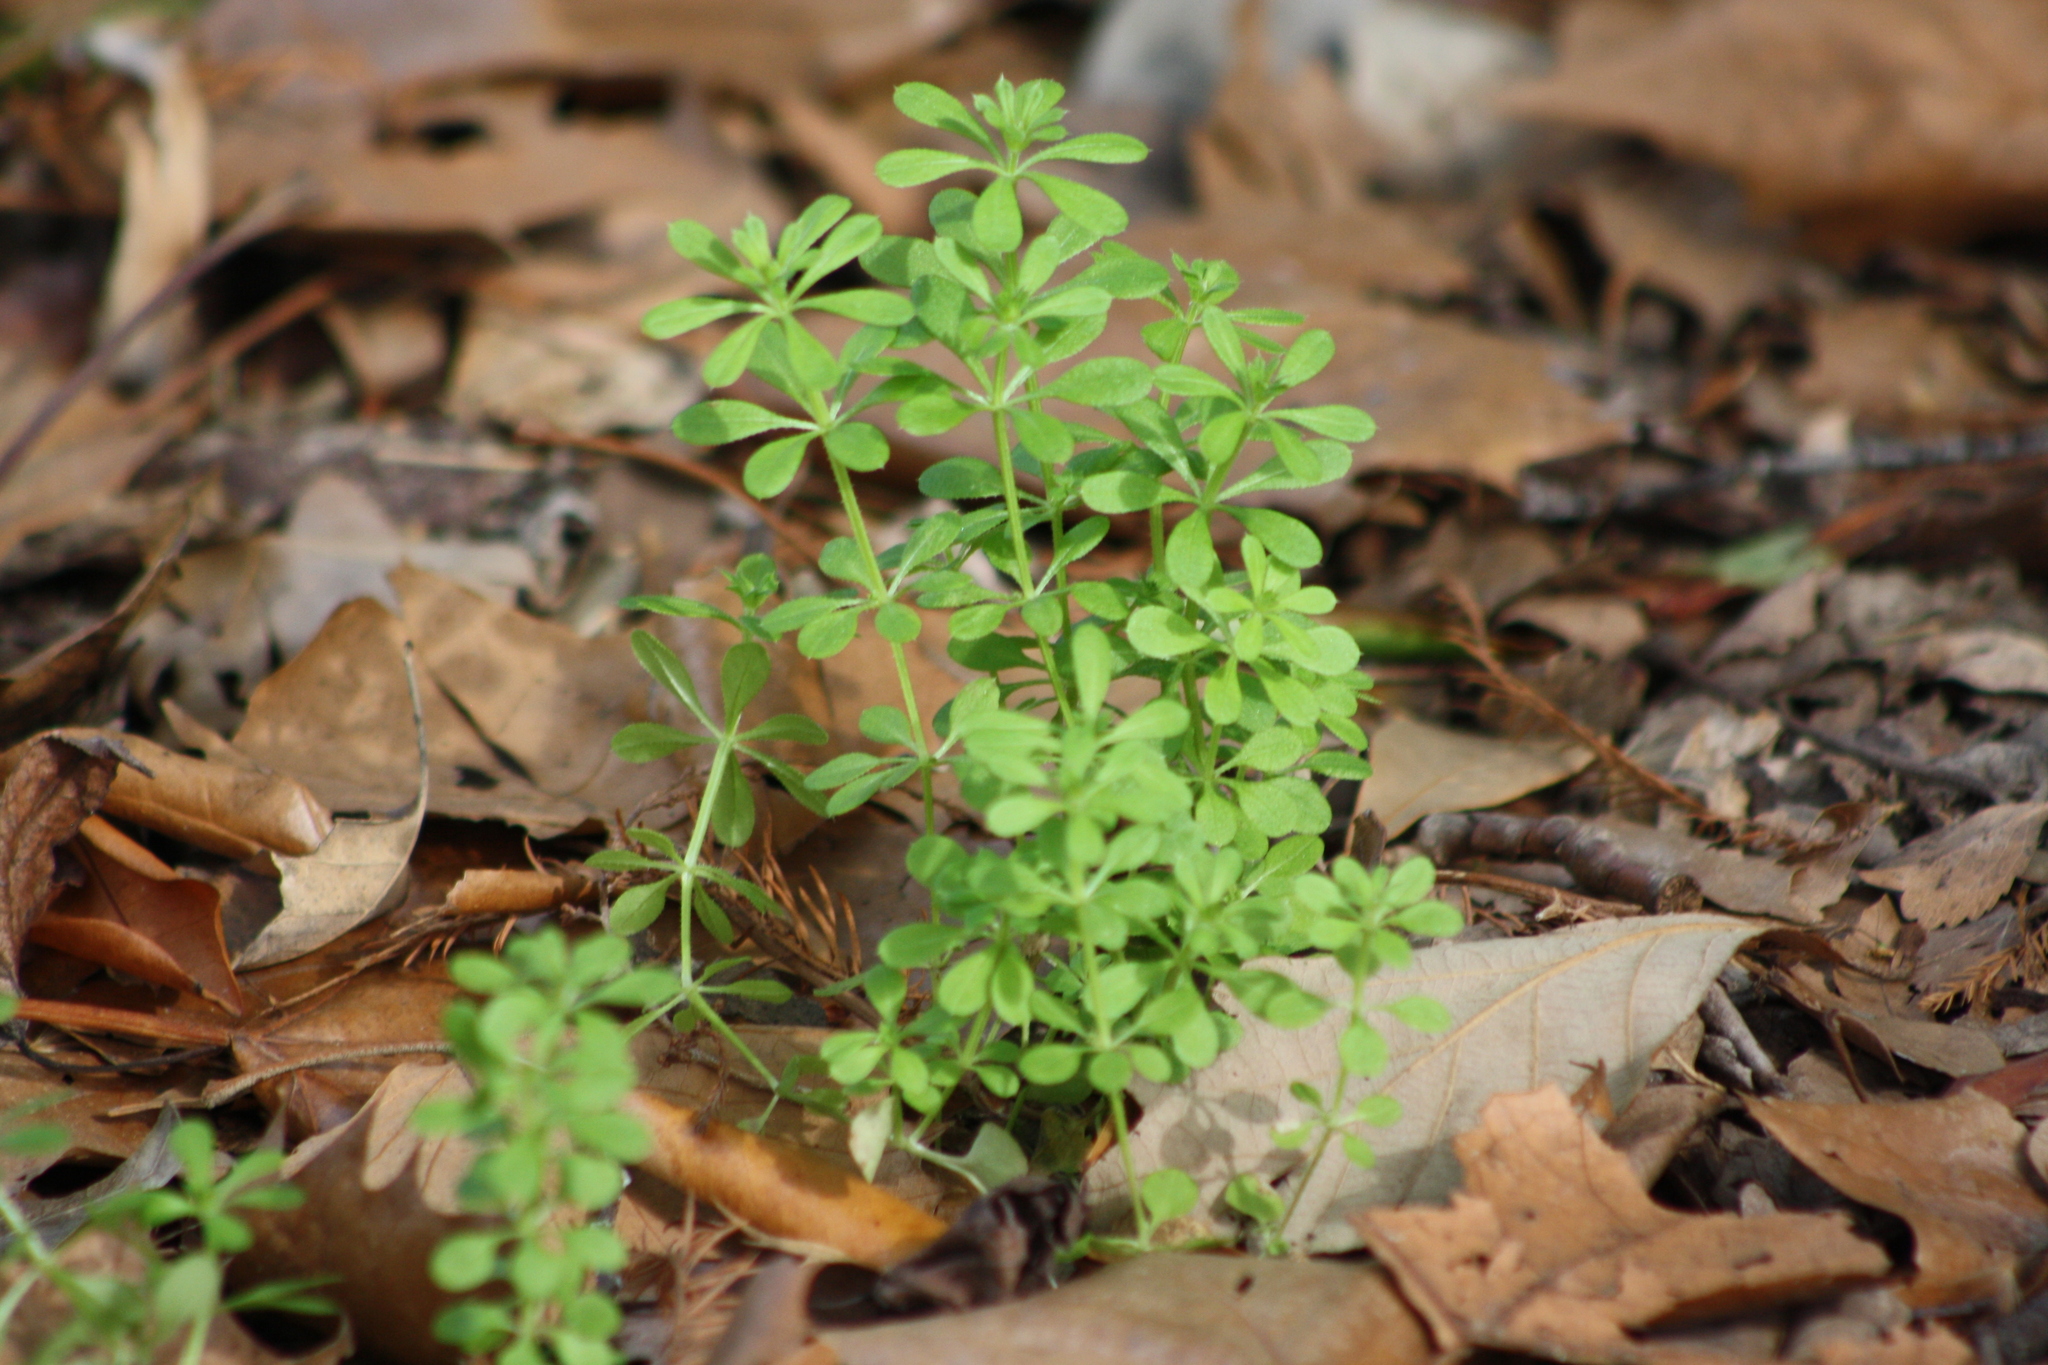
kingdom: Plantae
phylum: Tracheophyta
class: Magnoliopsida
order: Gentianales
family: Rubiaceae
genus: Galium
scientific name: Galium aparine
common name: Cleavers
